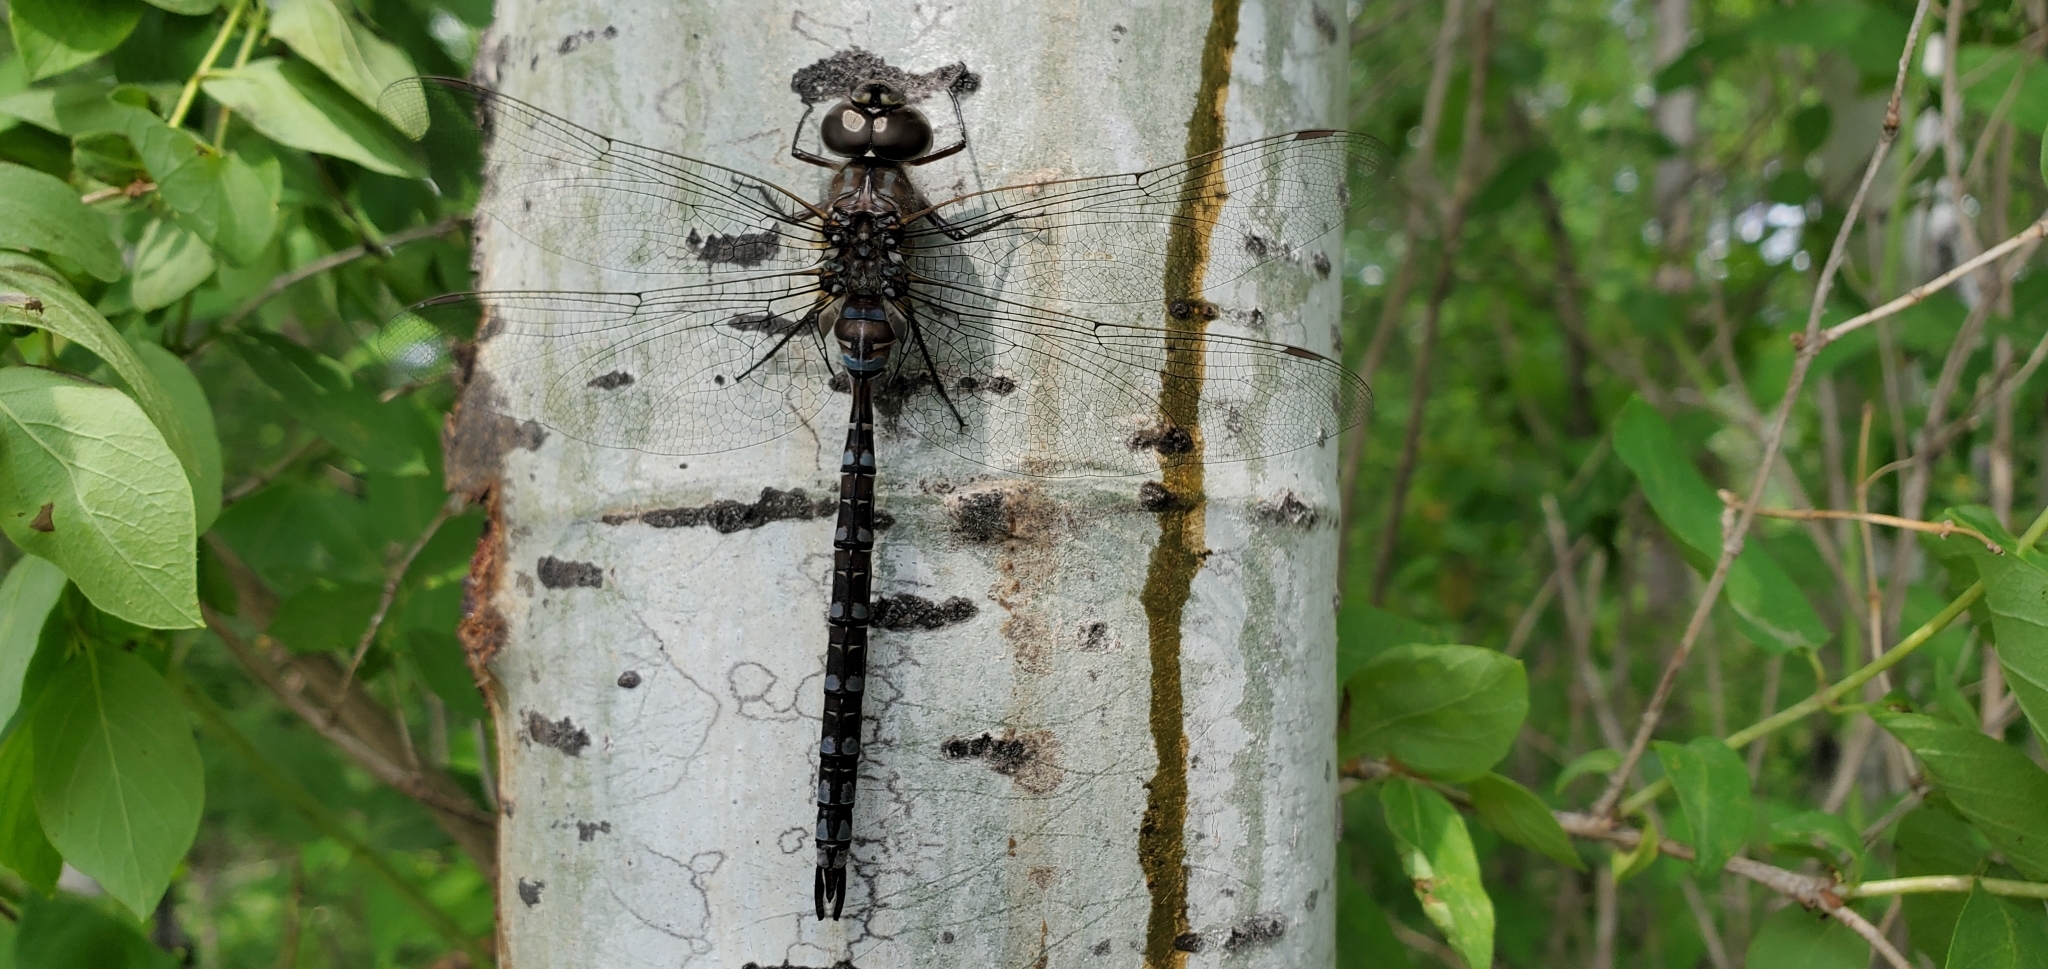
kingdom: Animalia
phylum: Arthropoda
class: Insecta
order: Odonata
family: Aeshnidae
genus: Aeshna
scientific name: Aeshna canadensis
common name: Canada darner
